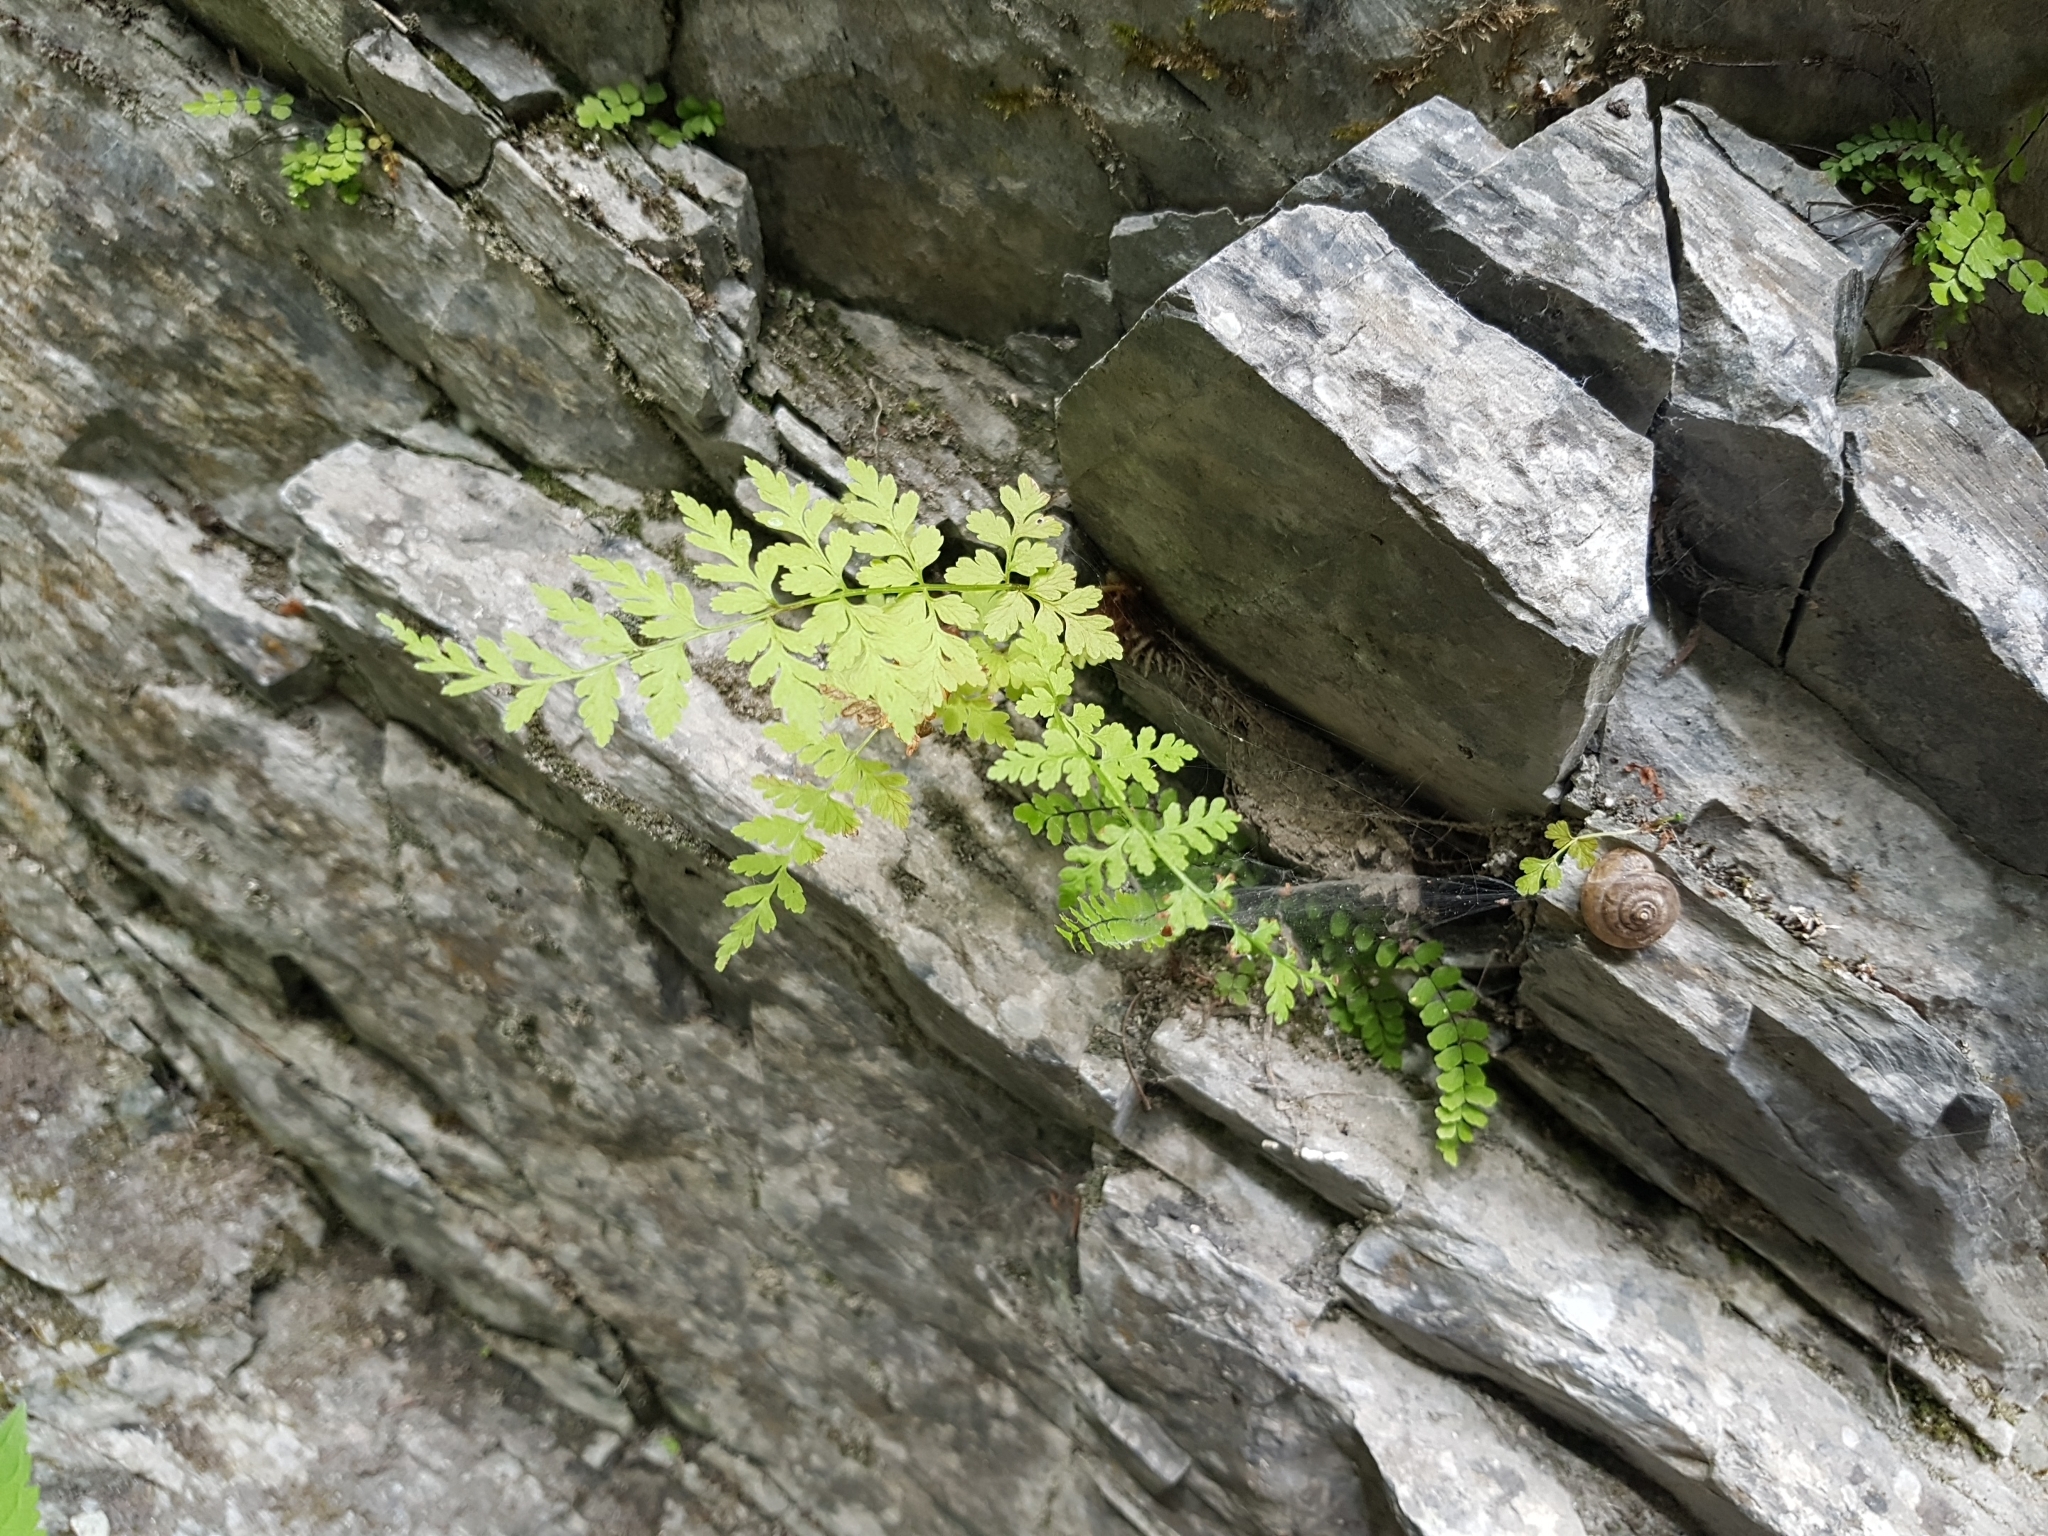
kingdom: Plantae
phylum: Tracheophyta
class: Polypodiopsida
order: Polypodiales
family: Cystopteridaceae
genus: Cystopteris
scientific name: Cystopteris fragilis
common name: Brittle bladder fern
